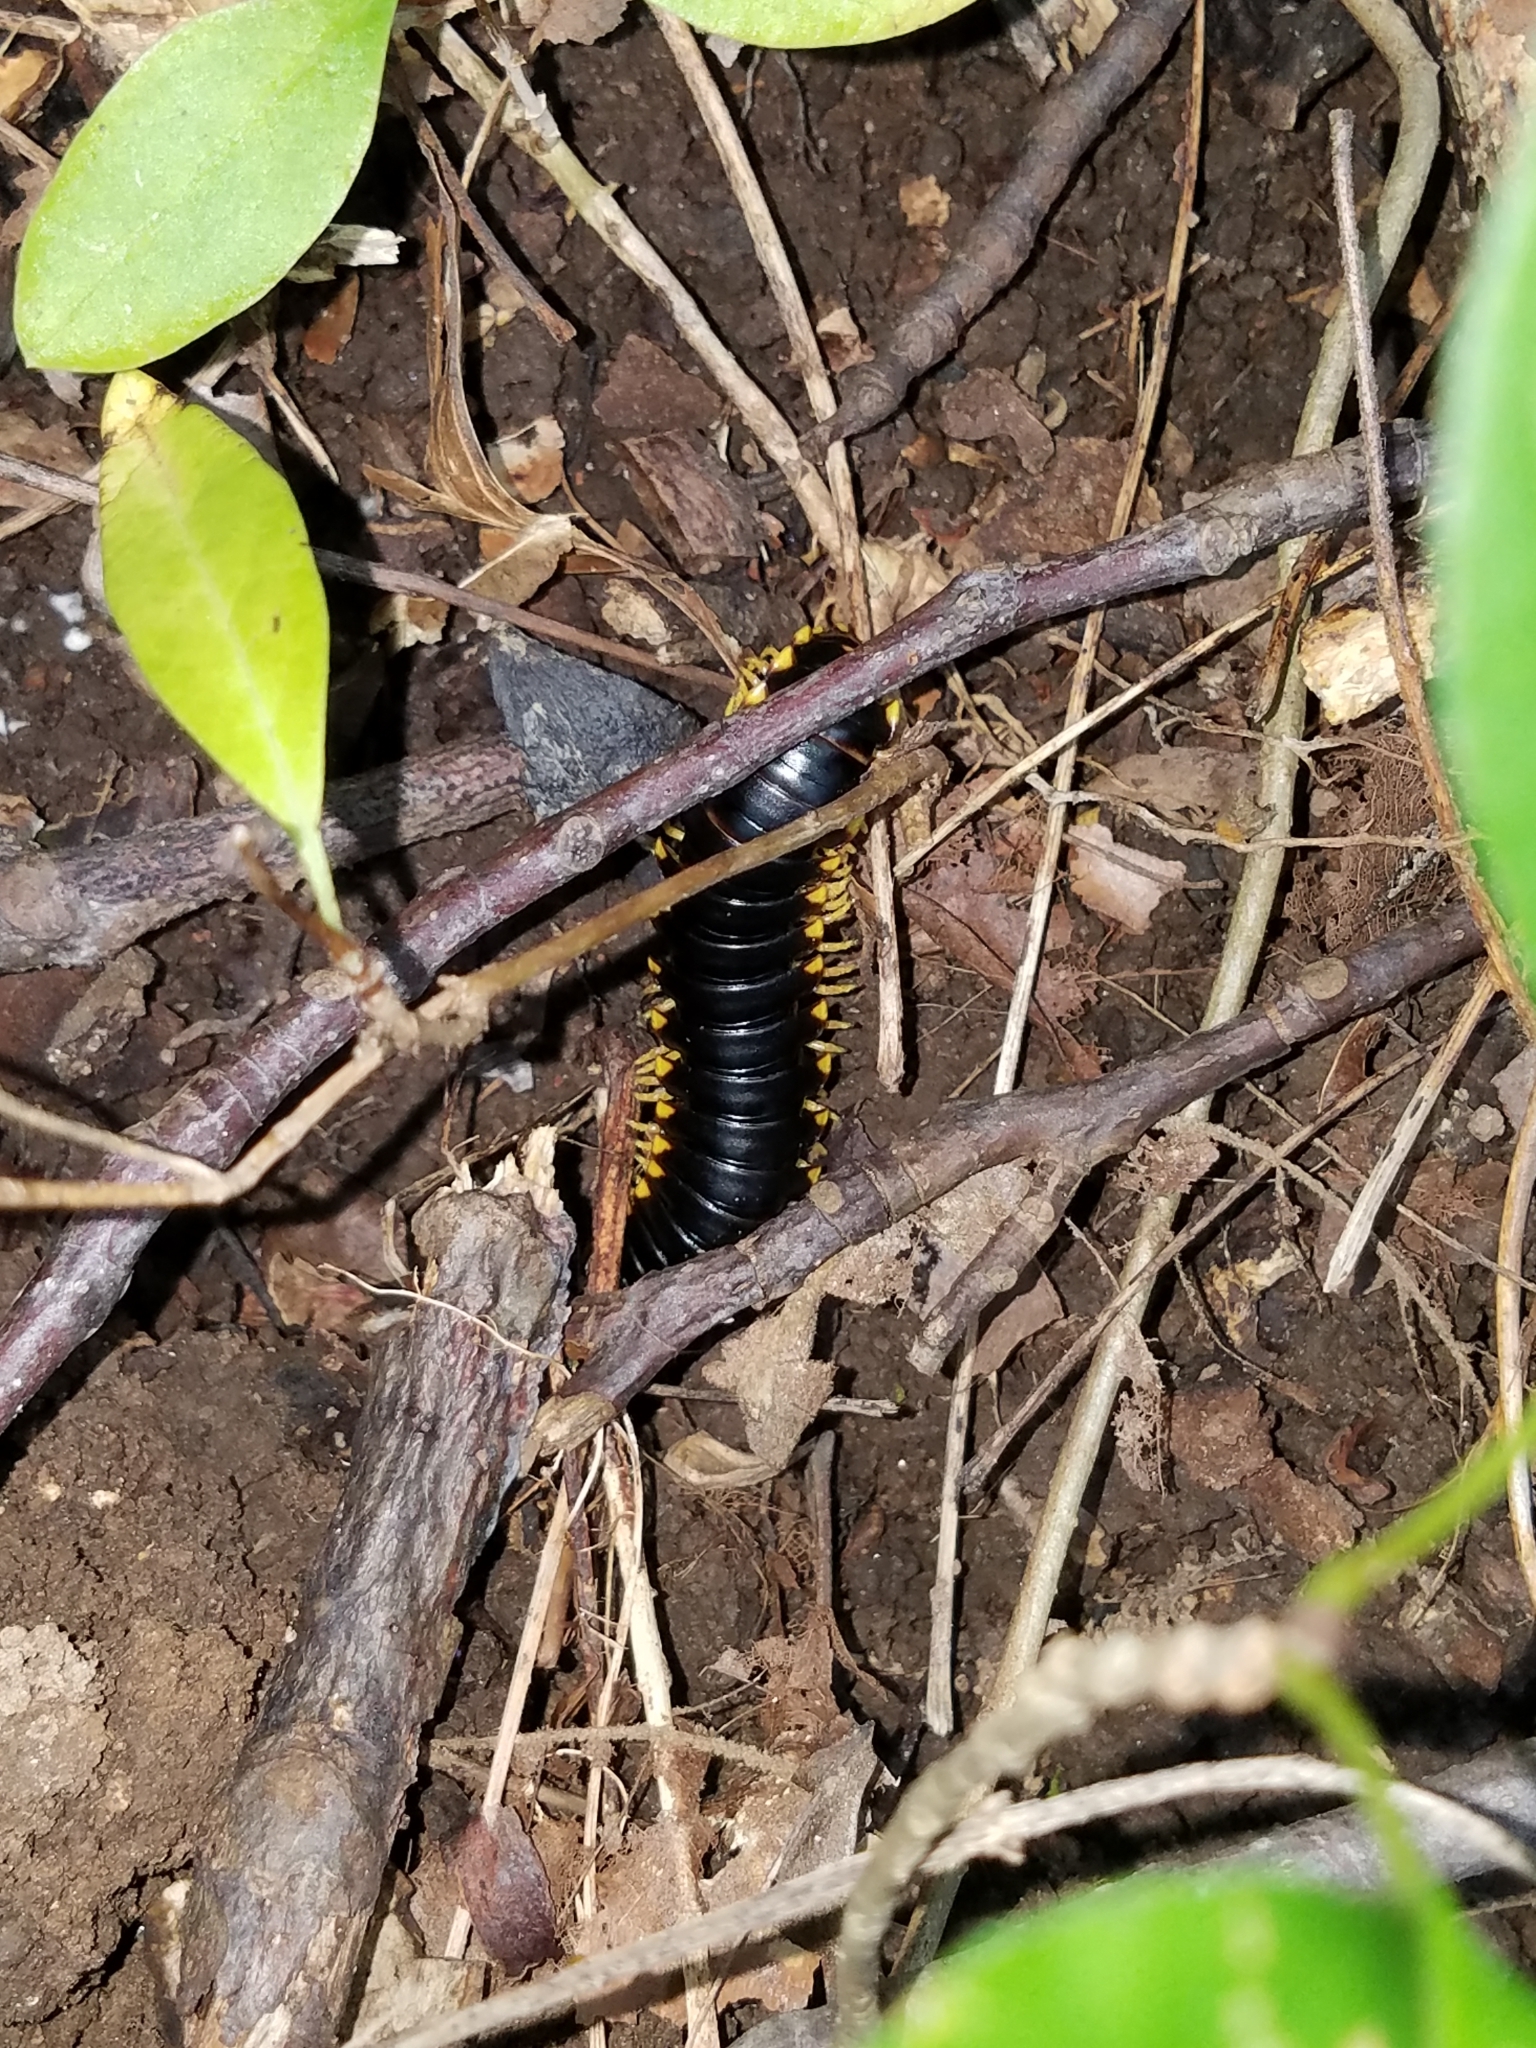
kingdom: Animalia
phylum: Arthropoda
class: Diplopoda
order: Polydesmida
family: Xystodesmidae
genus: Apheloria
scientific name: Apheloria tigana
